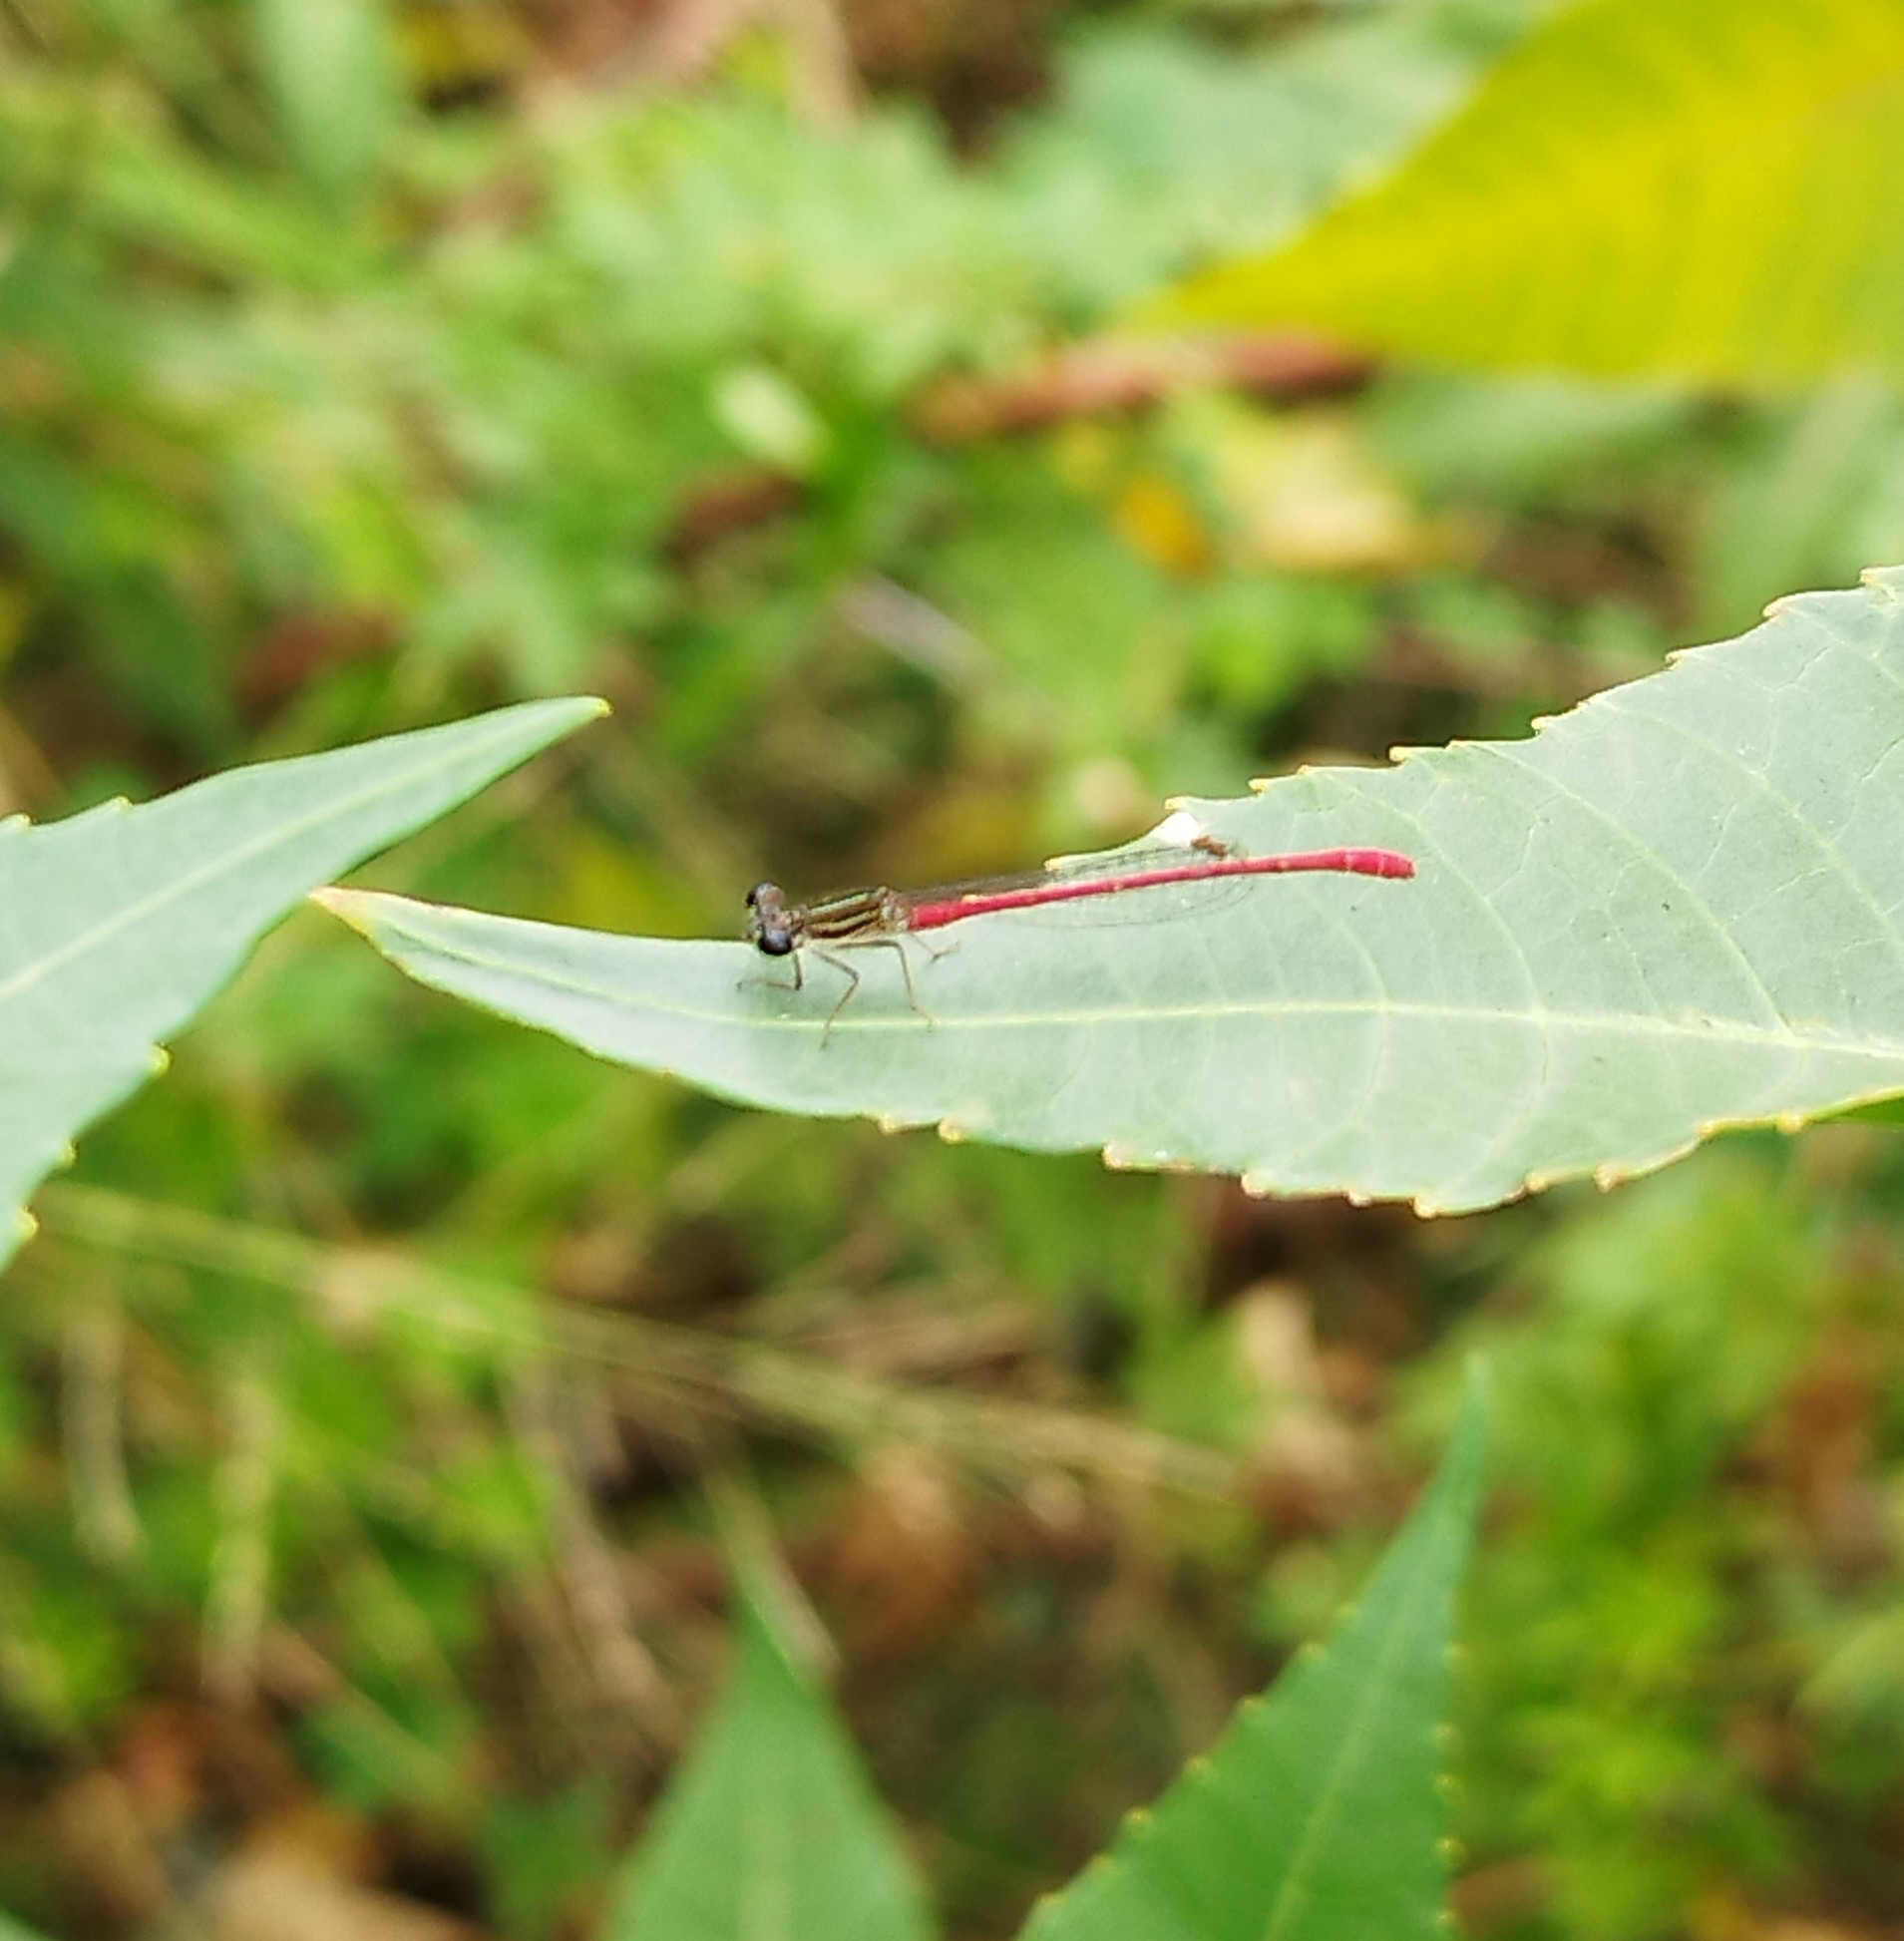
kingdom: Animalia
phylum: Arthropoda
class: Insecta
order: Odonata
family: Coenagrionidae
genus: Telebasis
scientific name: Telebasis willinki
